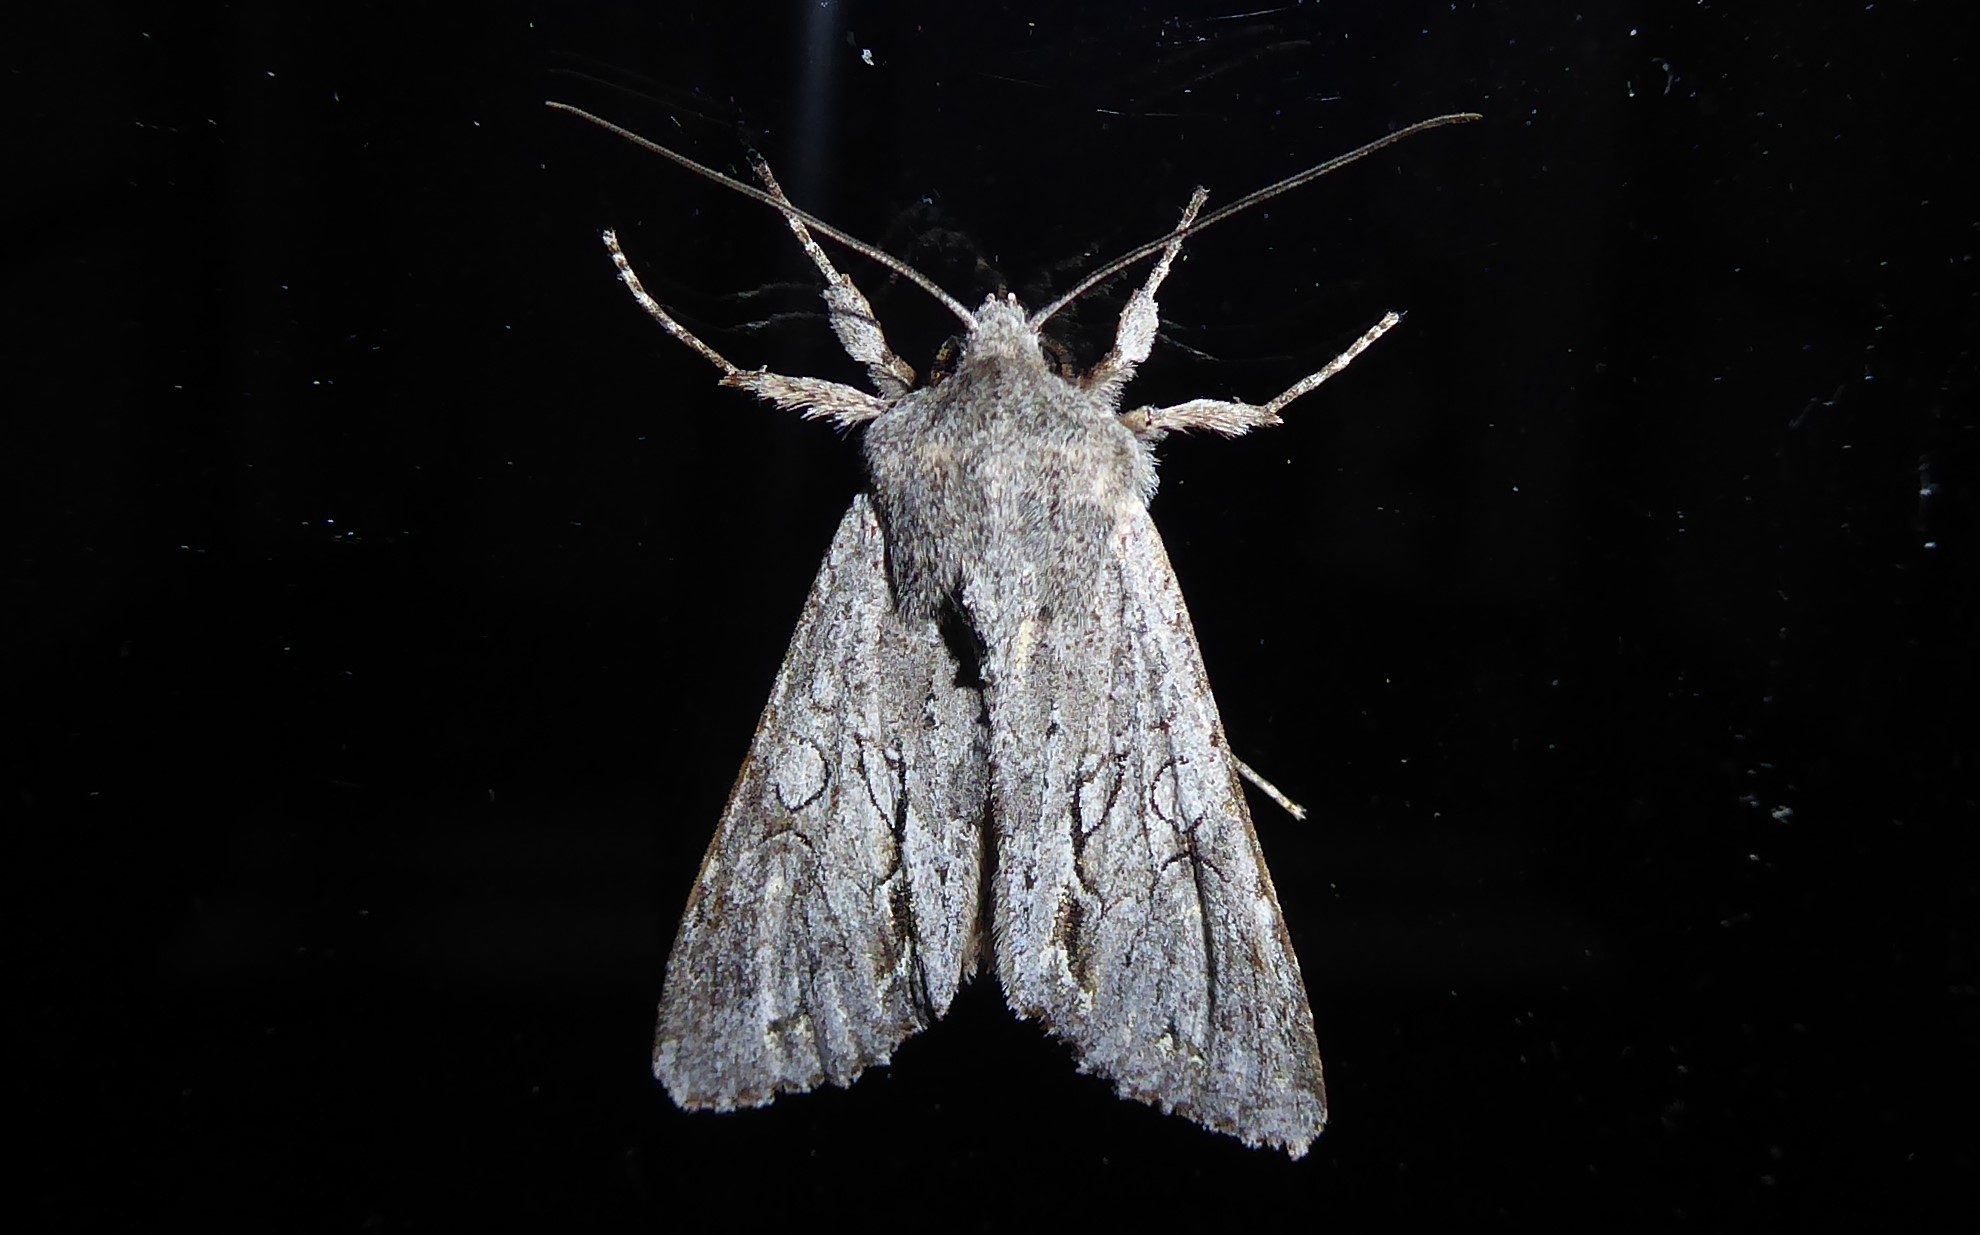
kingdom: Animalia
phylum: Arthropoda
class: Insecta
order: Lepidoptera
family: Noctuidae
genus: Ichneutica
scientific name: Ichneutica
